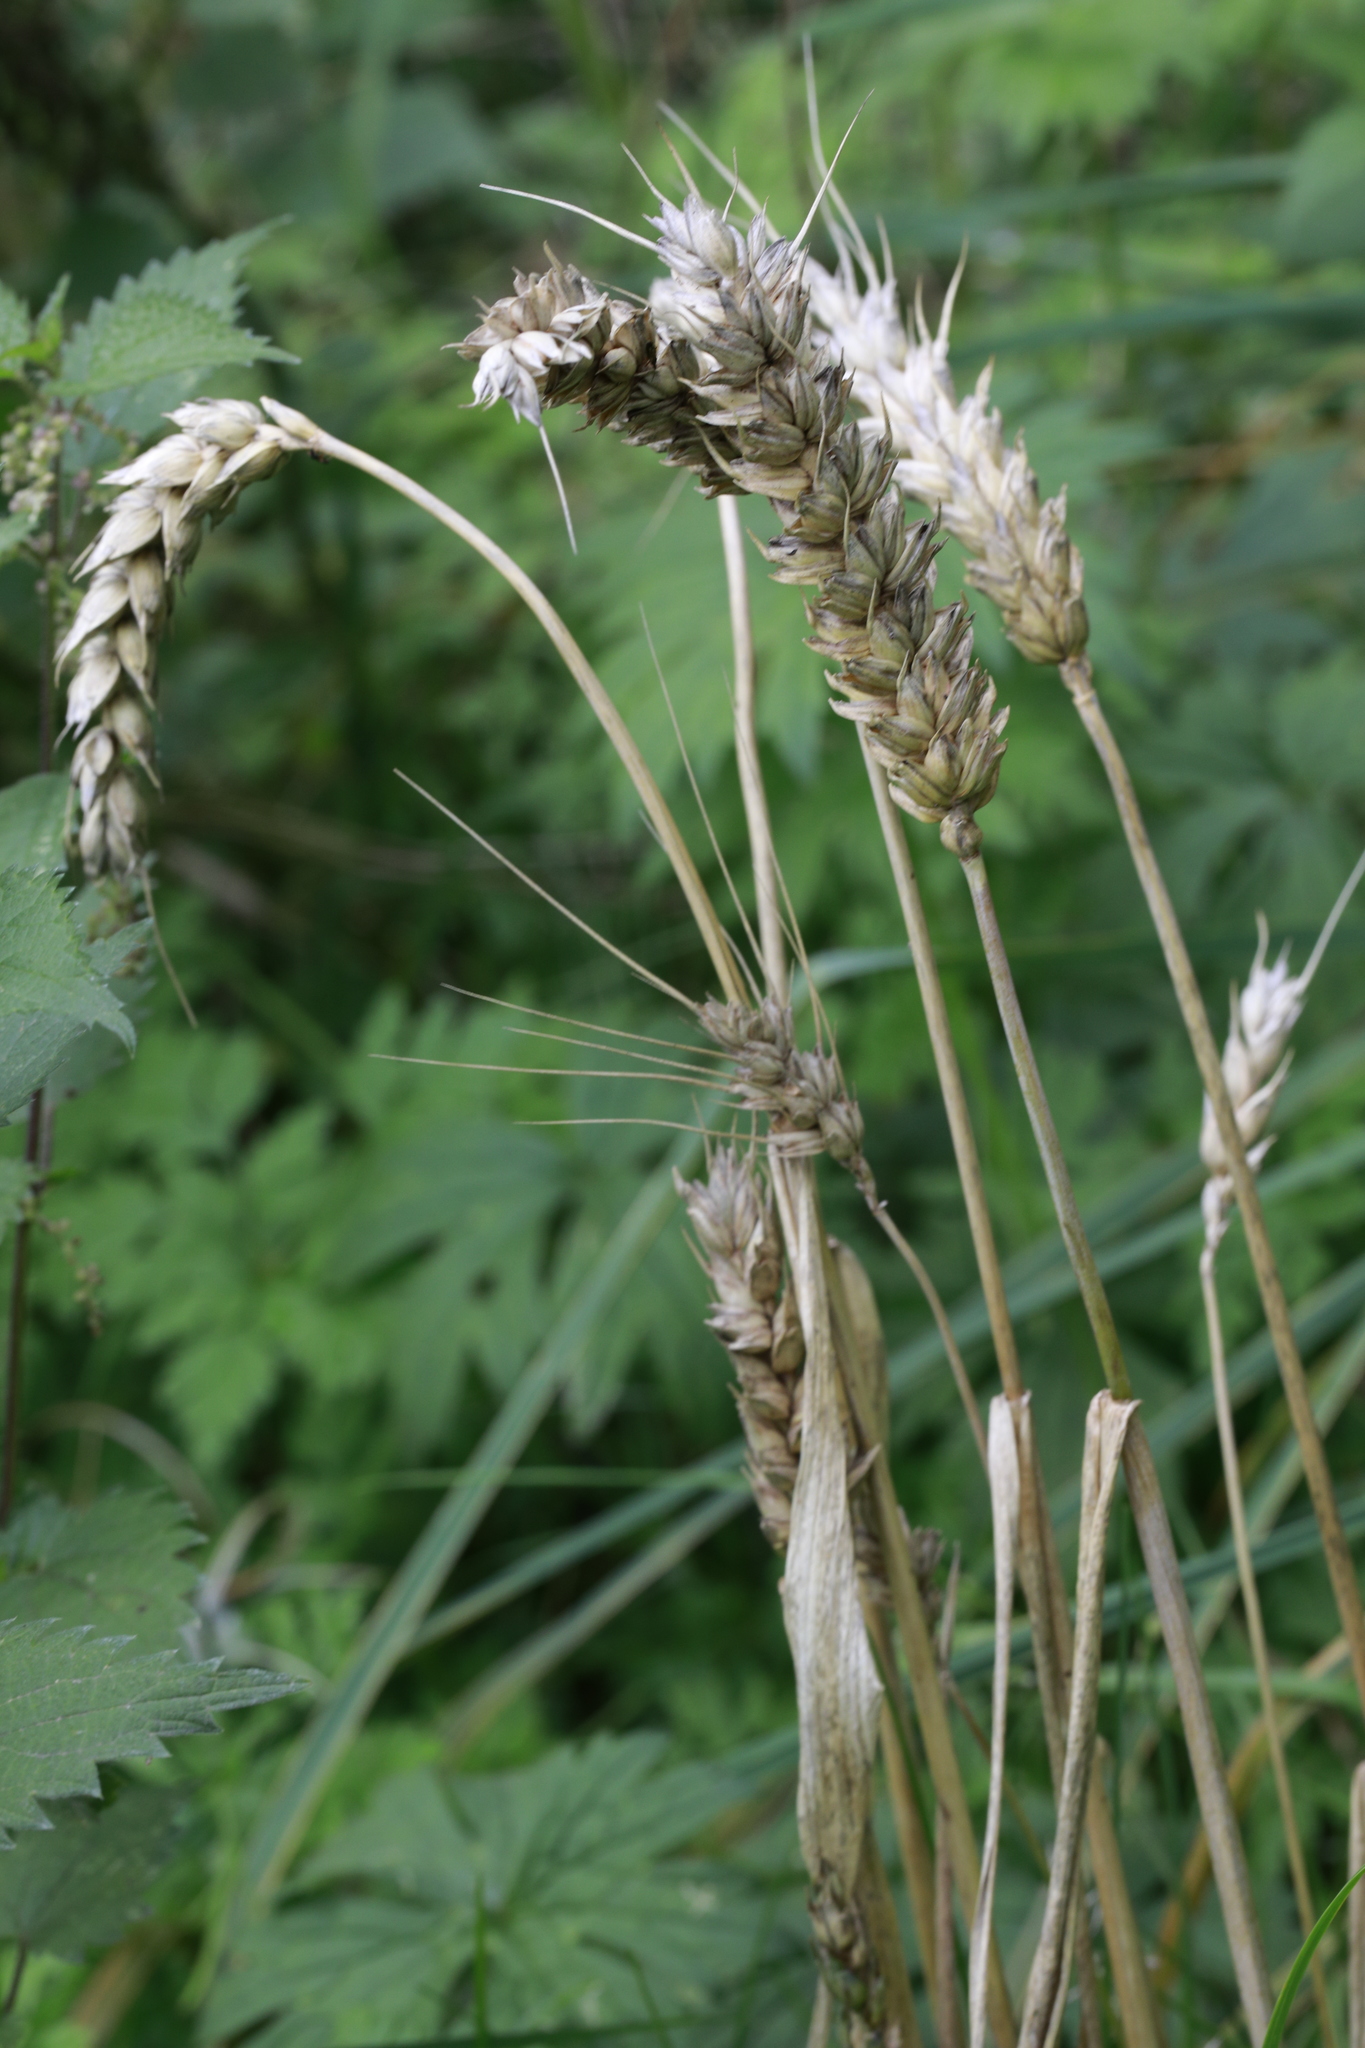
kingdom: Plantae
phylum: Tracheophyta
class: Liliopsida
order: Poales
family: Poaceae
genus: Triticum
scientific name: Triticum aestivum
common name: Common wheat
